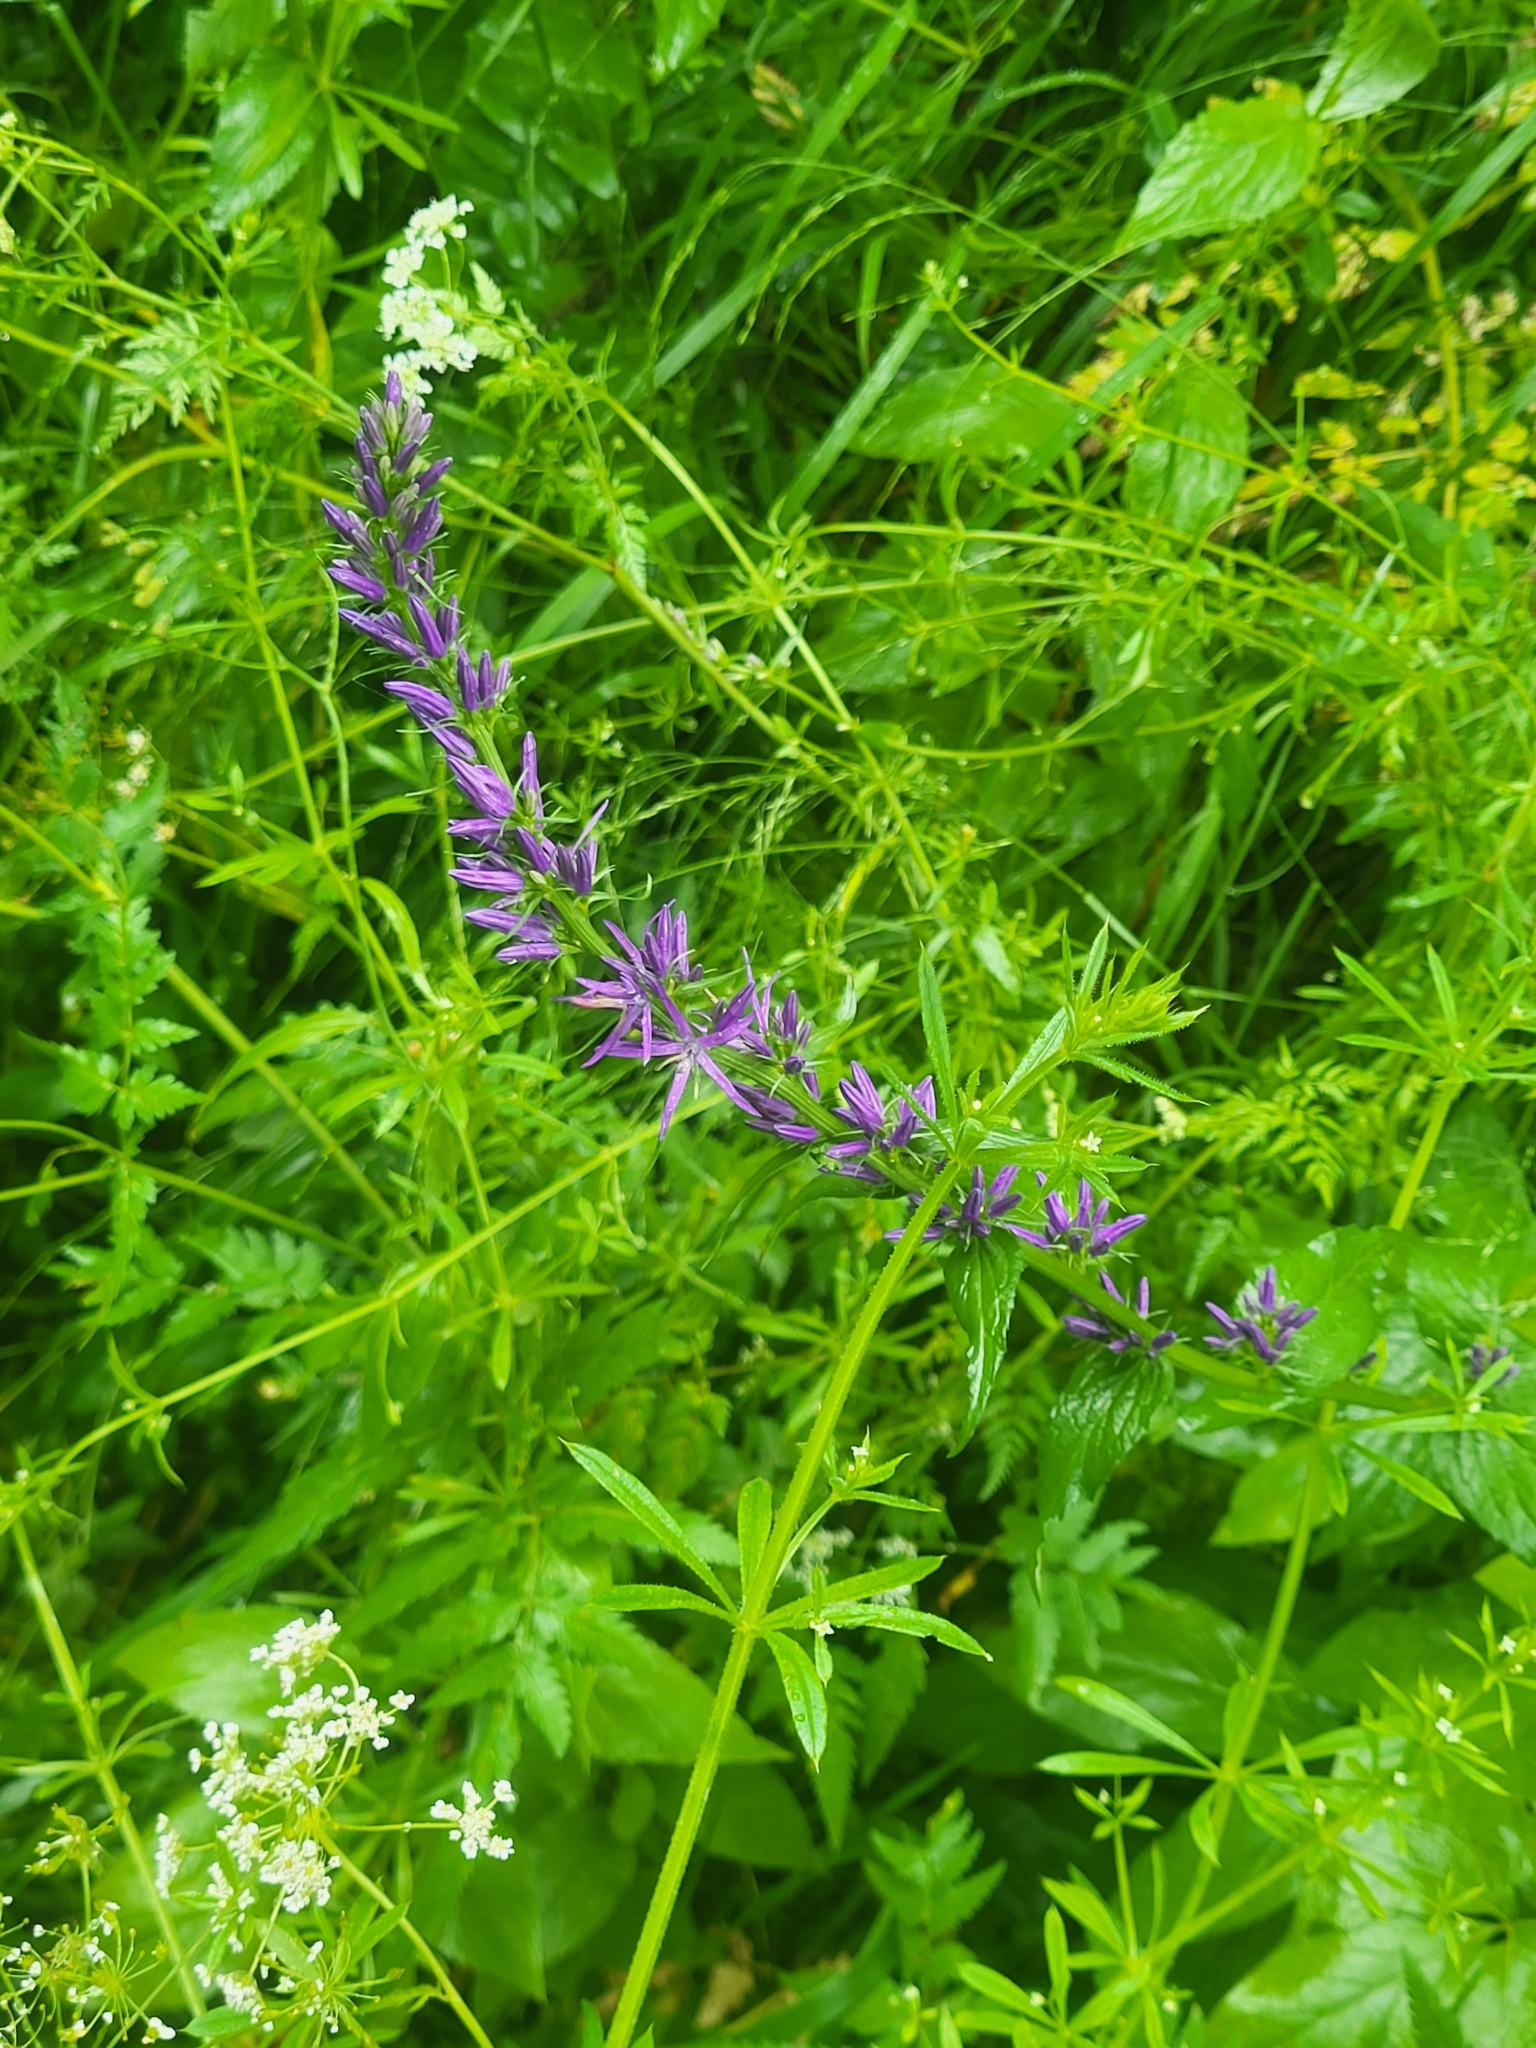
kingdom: Plantae
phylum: Tracheophyta
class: Magnoliopsida
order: Asterales
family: Campanulaceae
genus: Asyneuma
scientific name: Asyneuma campanuloides
